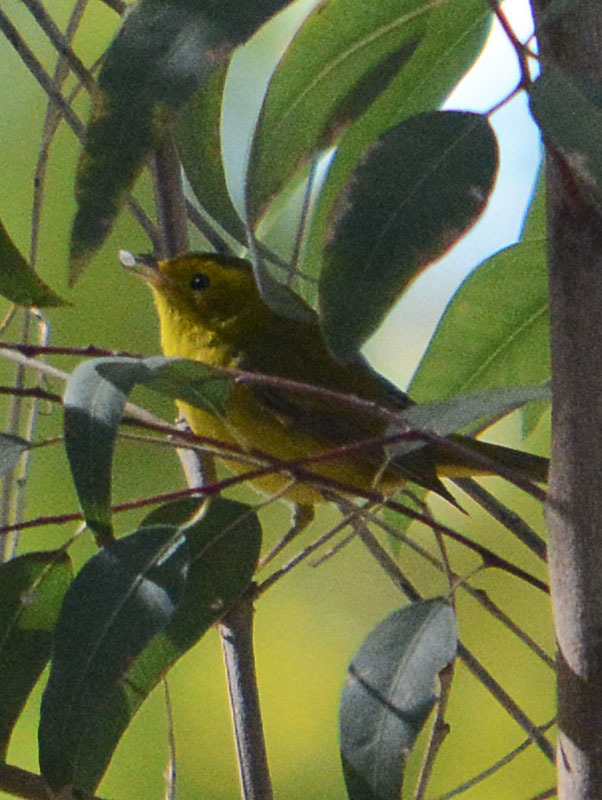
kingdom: Animalia
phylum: Chordata
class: Aves
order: Passeriformes
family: Parulidae
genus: Cardellina
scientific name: Cardellina pusilla
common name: Wilson's warbler
